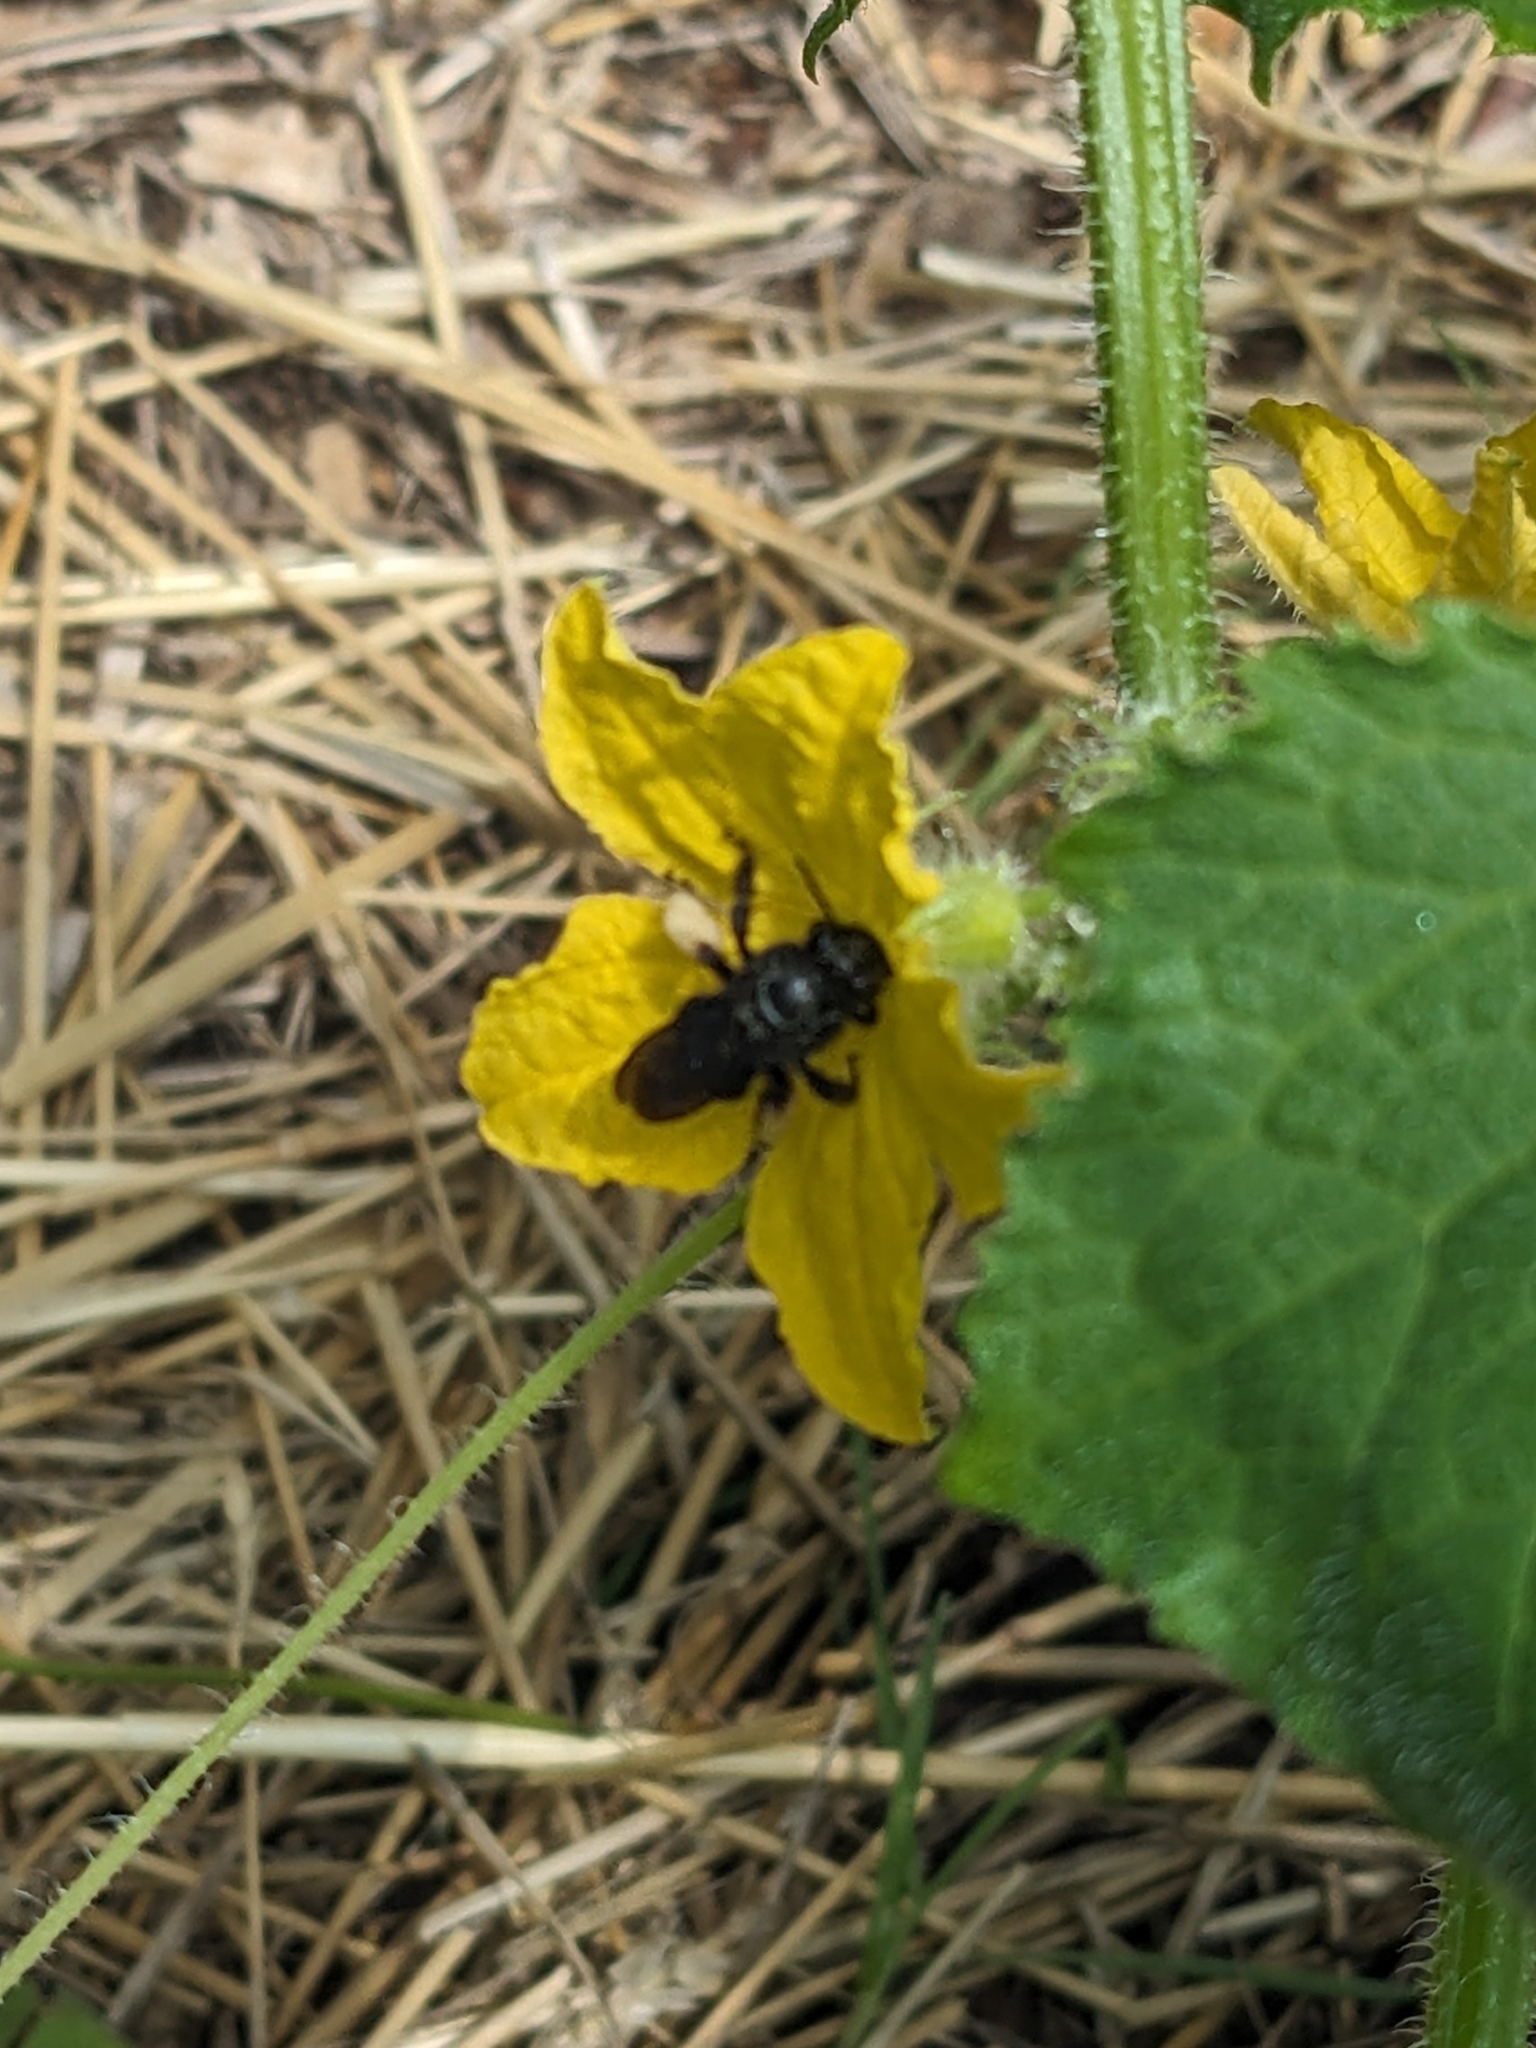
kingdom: Animalia
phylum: Arthropoda
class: Insecta
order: Hymenoptera
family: Apidae
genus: Melissodes
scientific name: Melissodes bimaculatus
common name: Two-spotted long-horned bee
